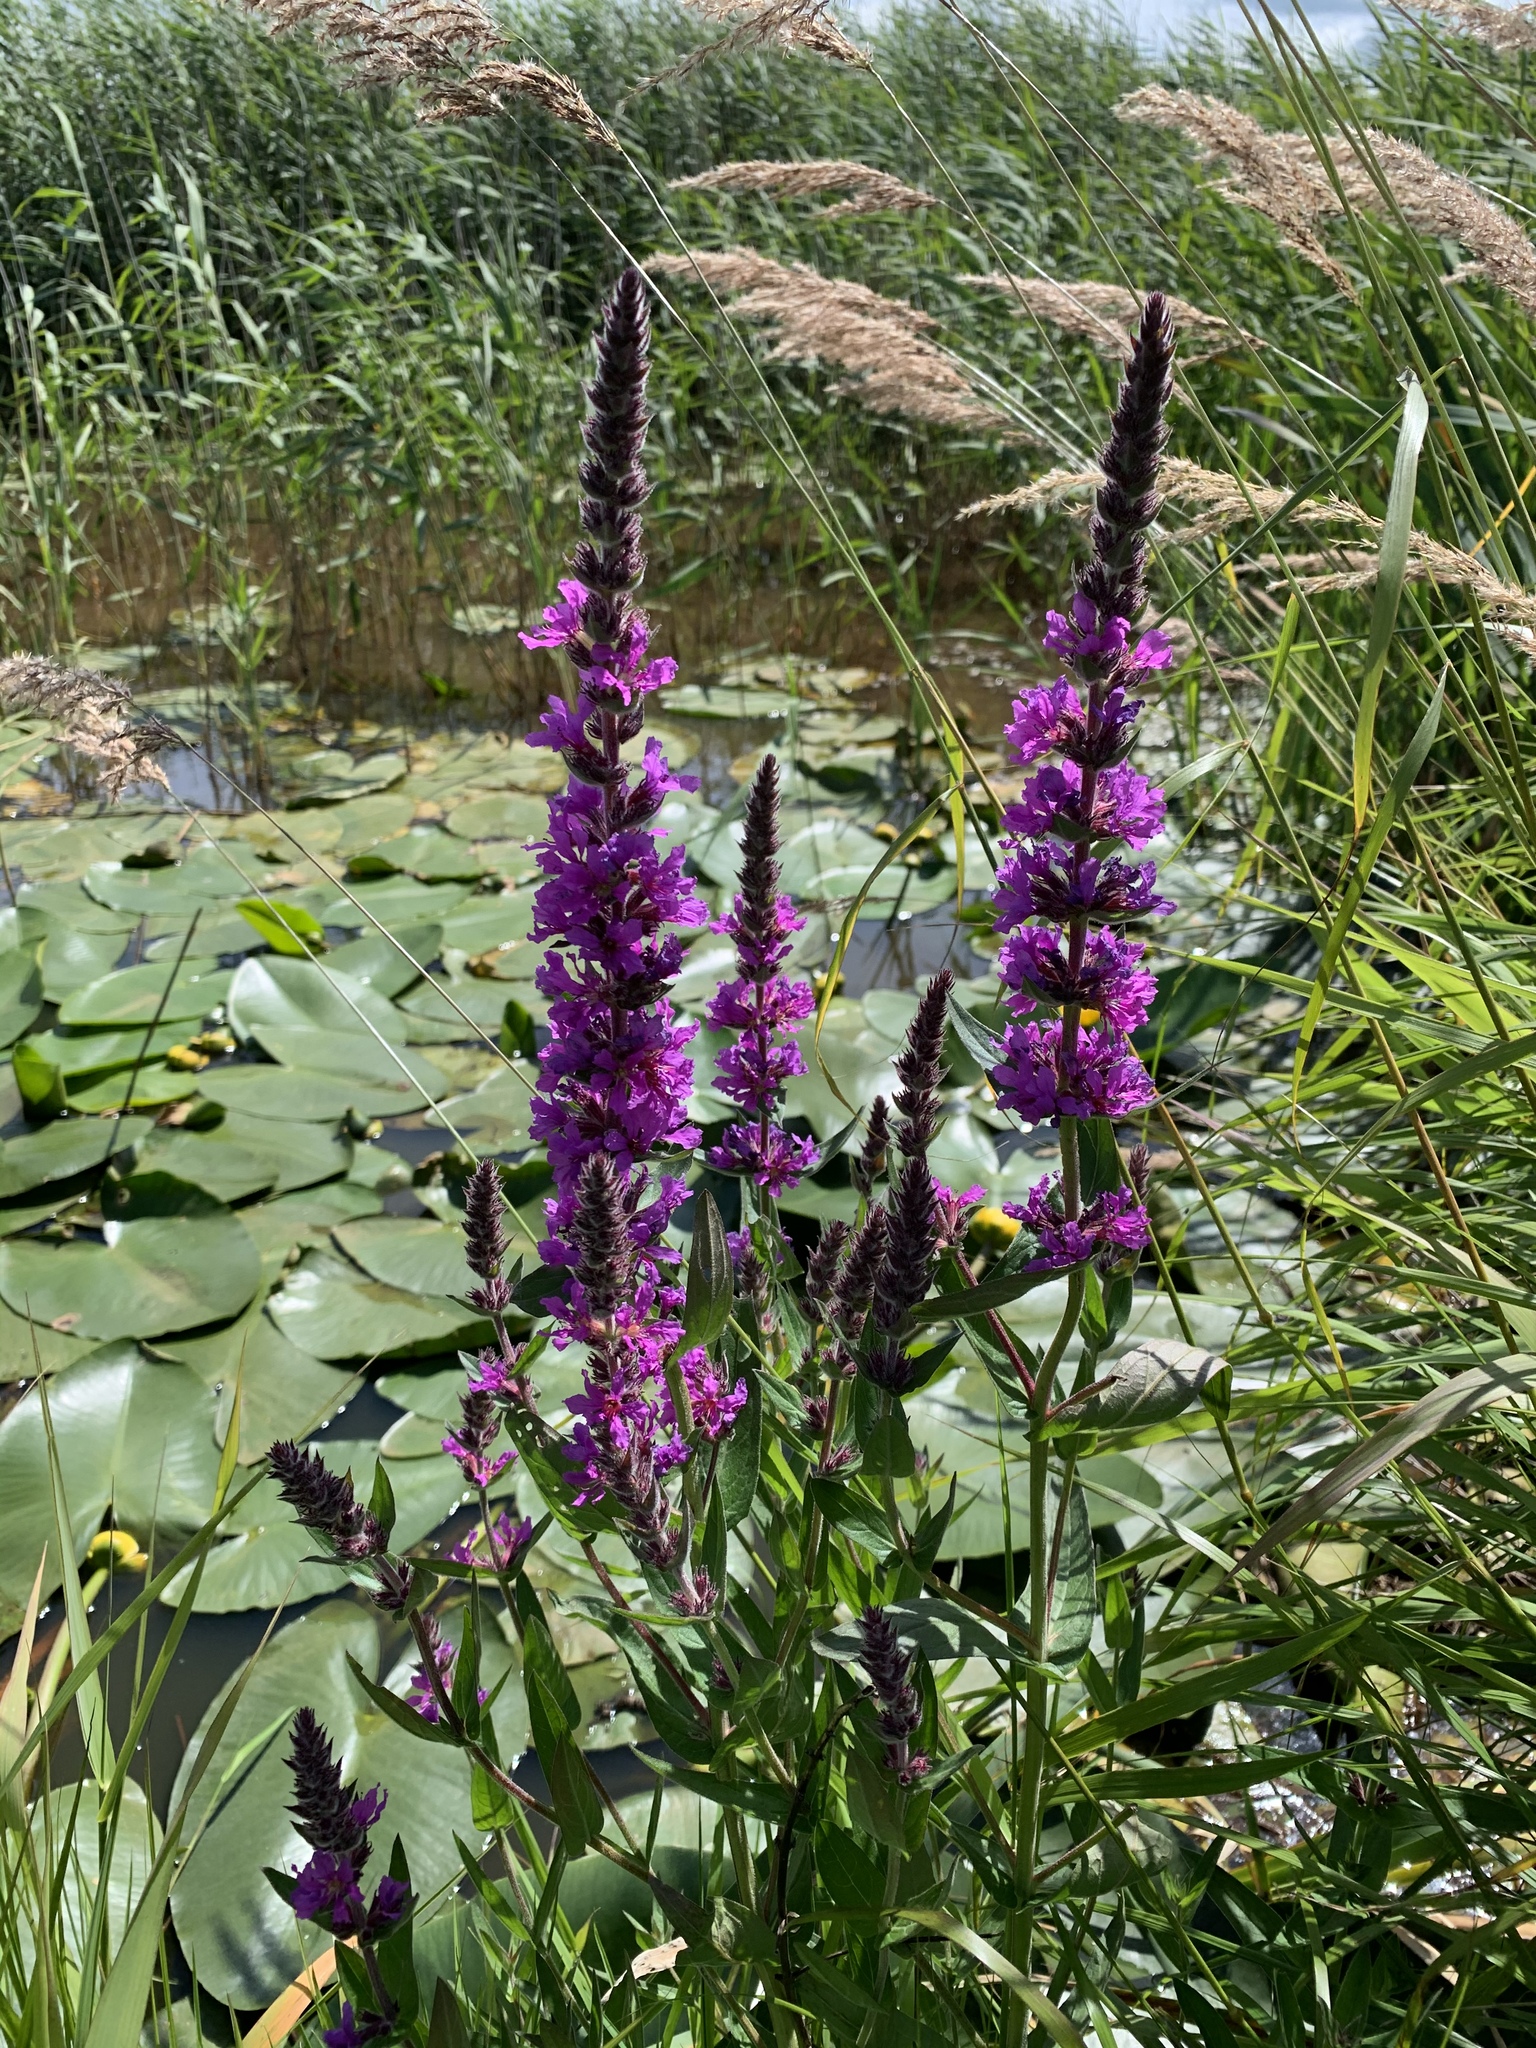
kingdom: Plantae
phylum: Tracheophyta
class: Magnoliopsida
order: Myrtales
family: Lythraceae
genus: Lythrum
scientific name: Lythrum salicaria
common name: Purple loosestrife
